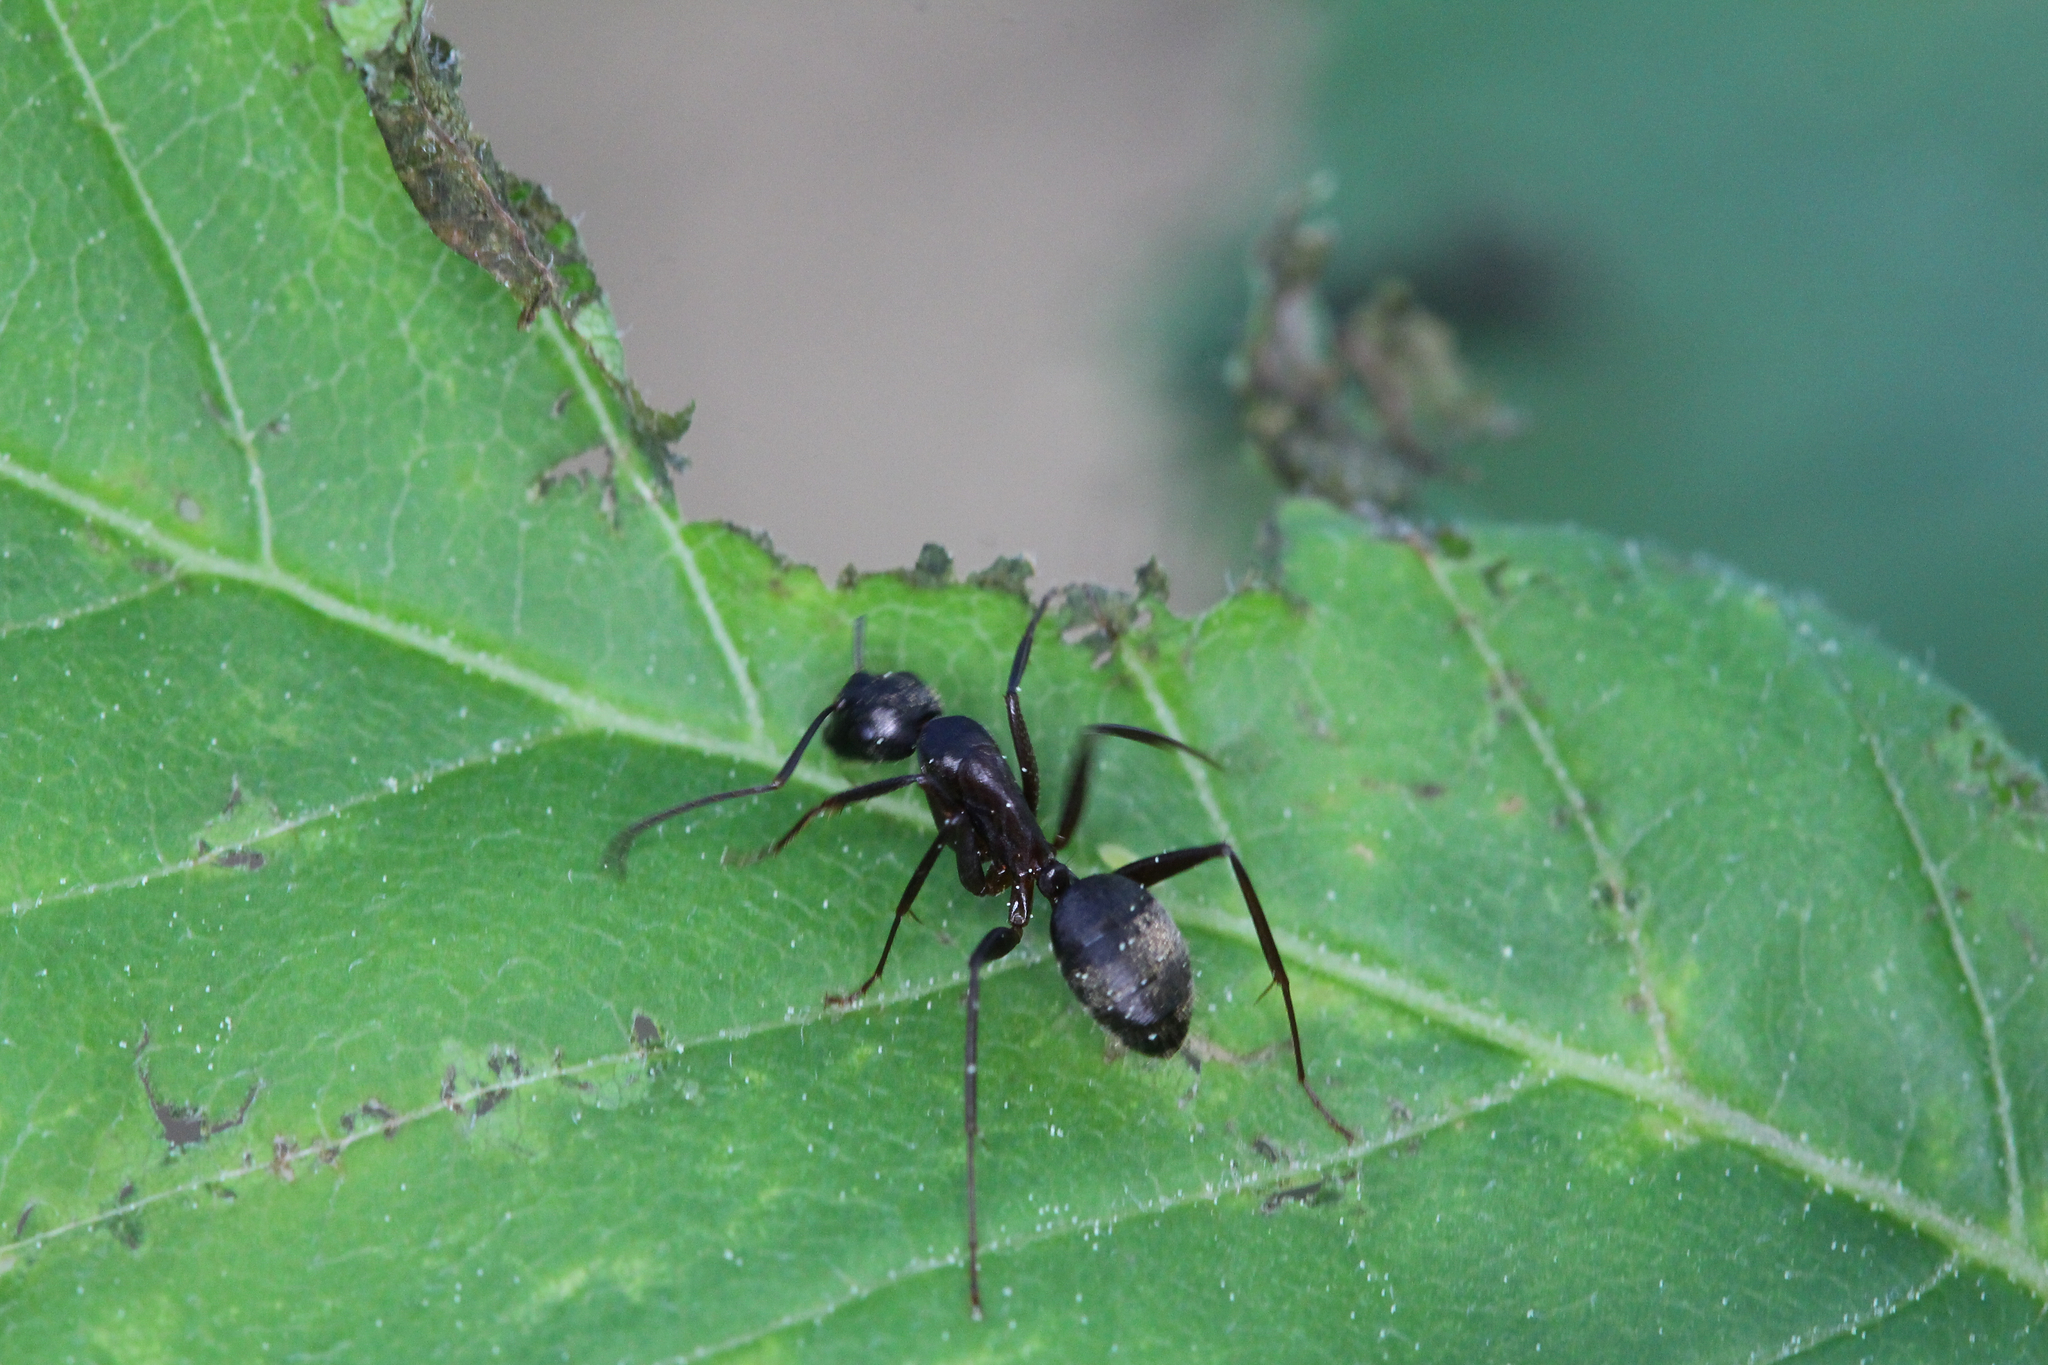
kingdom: Animalia
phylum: Arthropoda
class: Insecta
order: Hymenoptera
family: Formicidae
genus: Camponotus
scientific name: Camponotus chromaiodes
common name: Red carpenter ant
